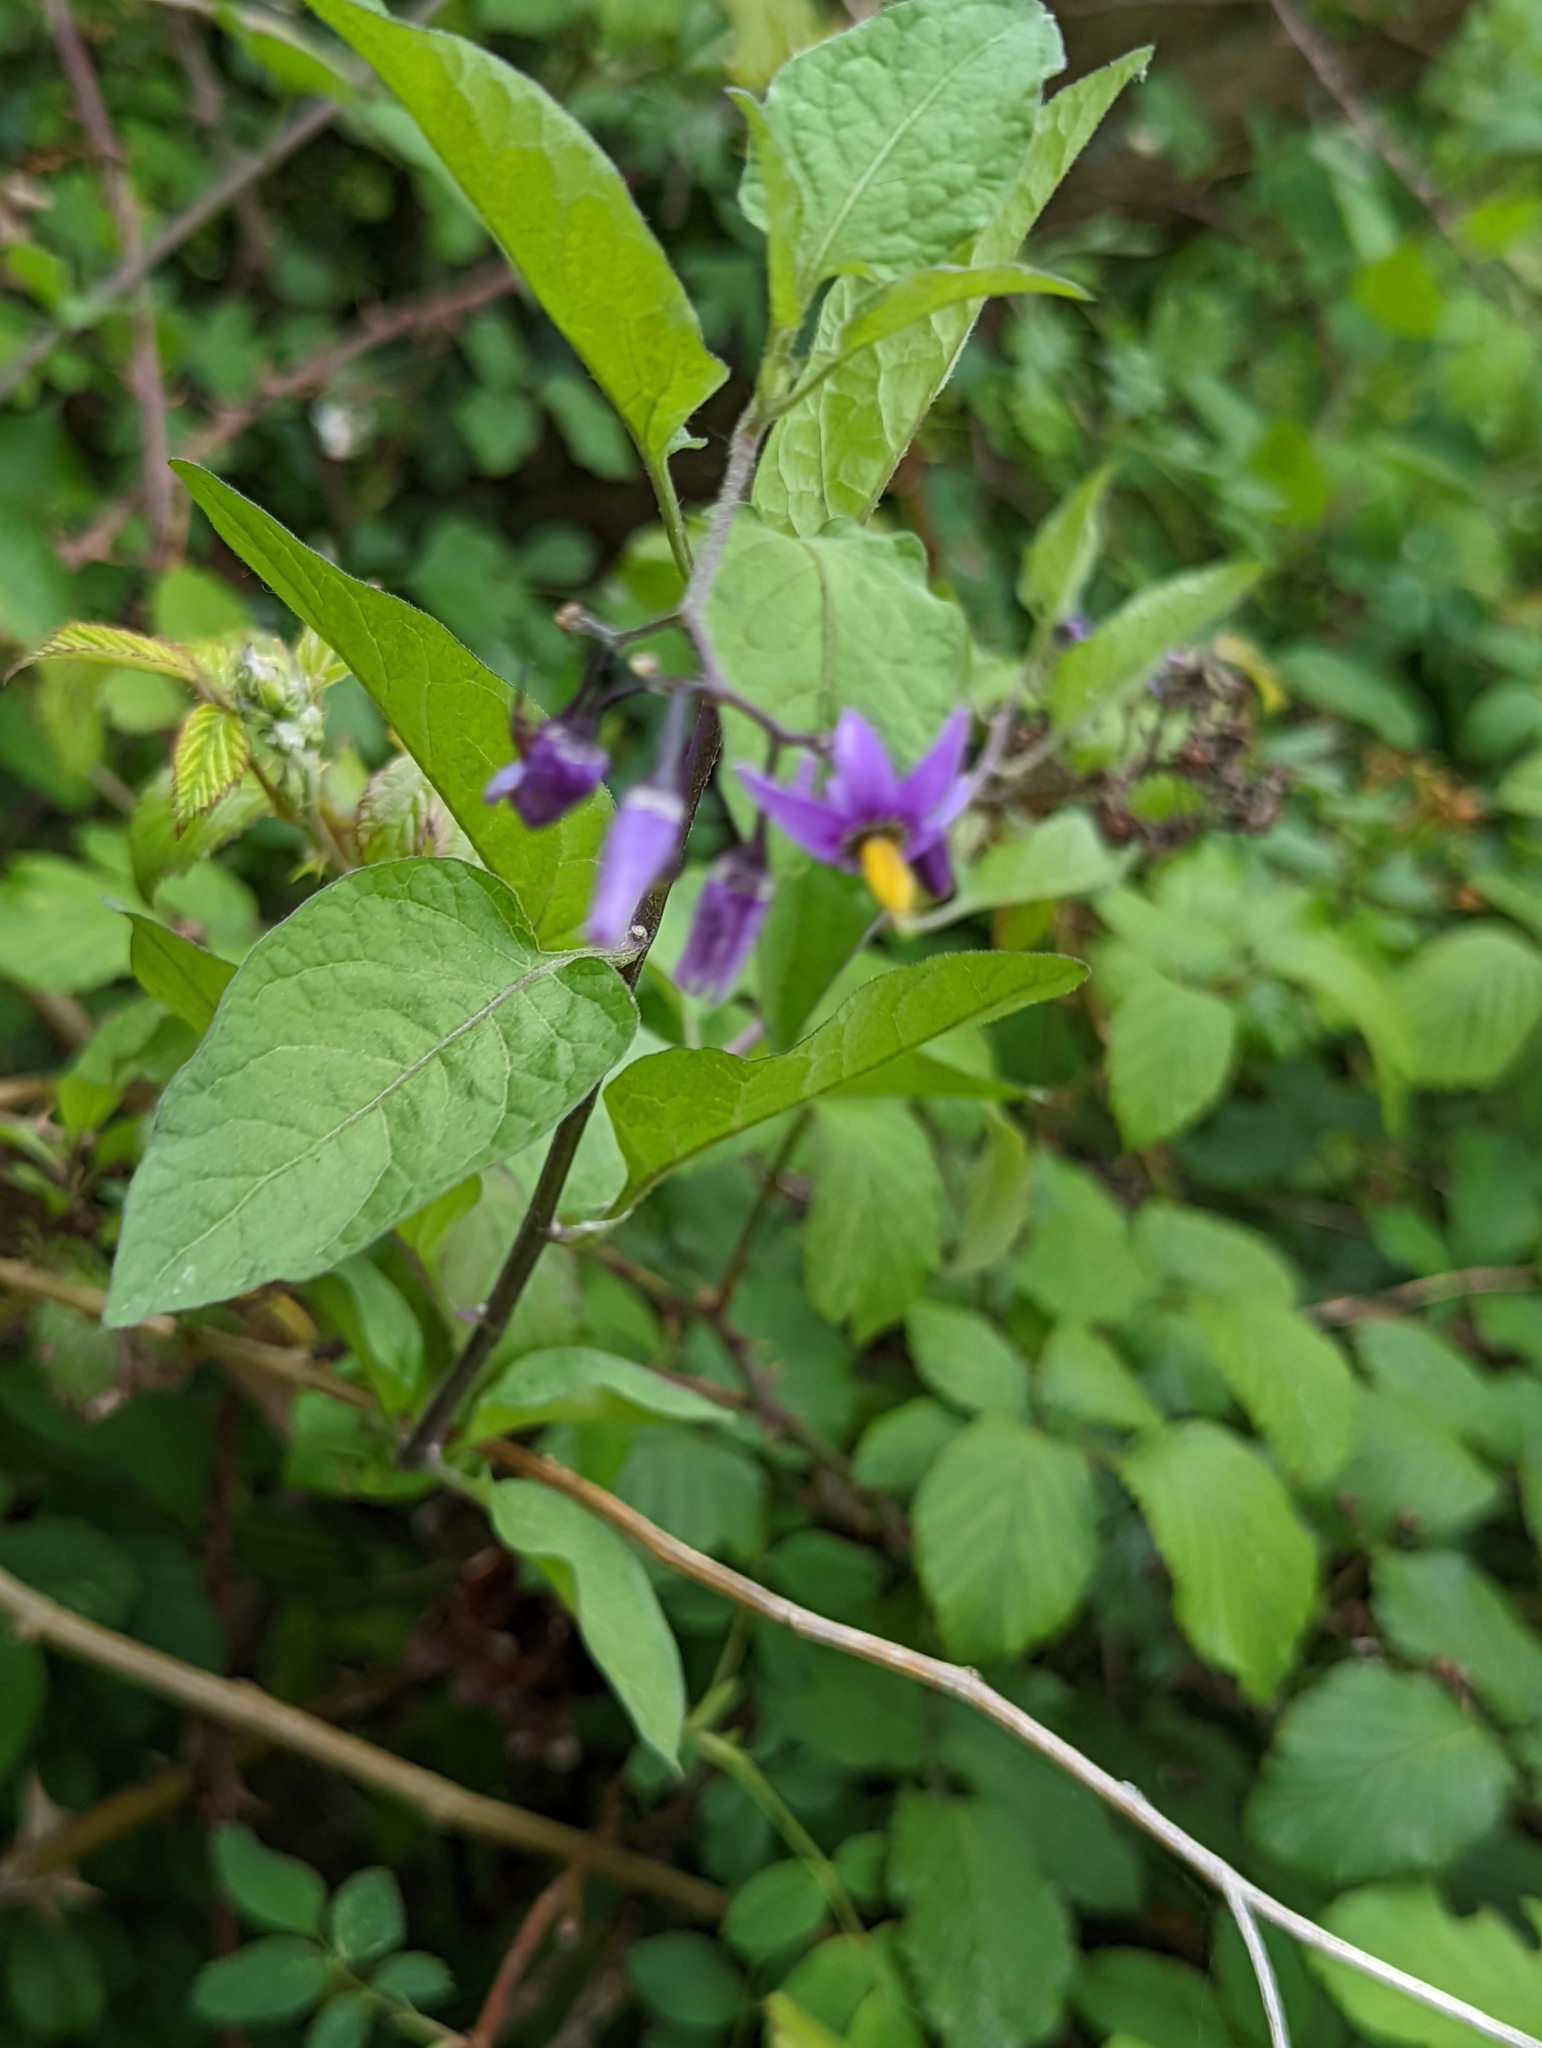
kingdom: Plantae
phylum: Tracheophyta
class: Magnoliopsida
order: Solanales
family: Solanaceae
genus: Solanum
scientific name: Solanum dulcamara
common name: Climbing nightshade
